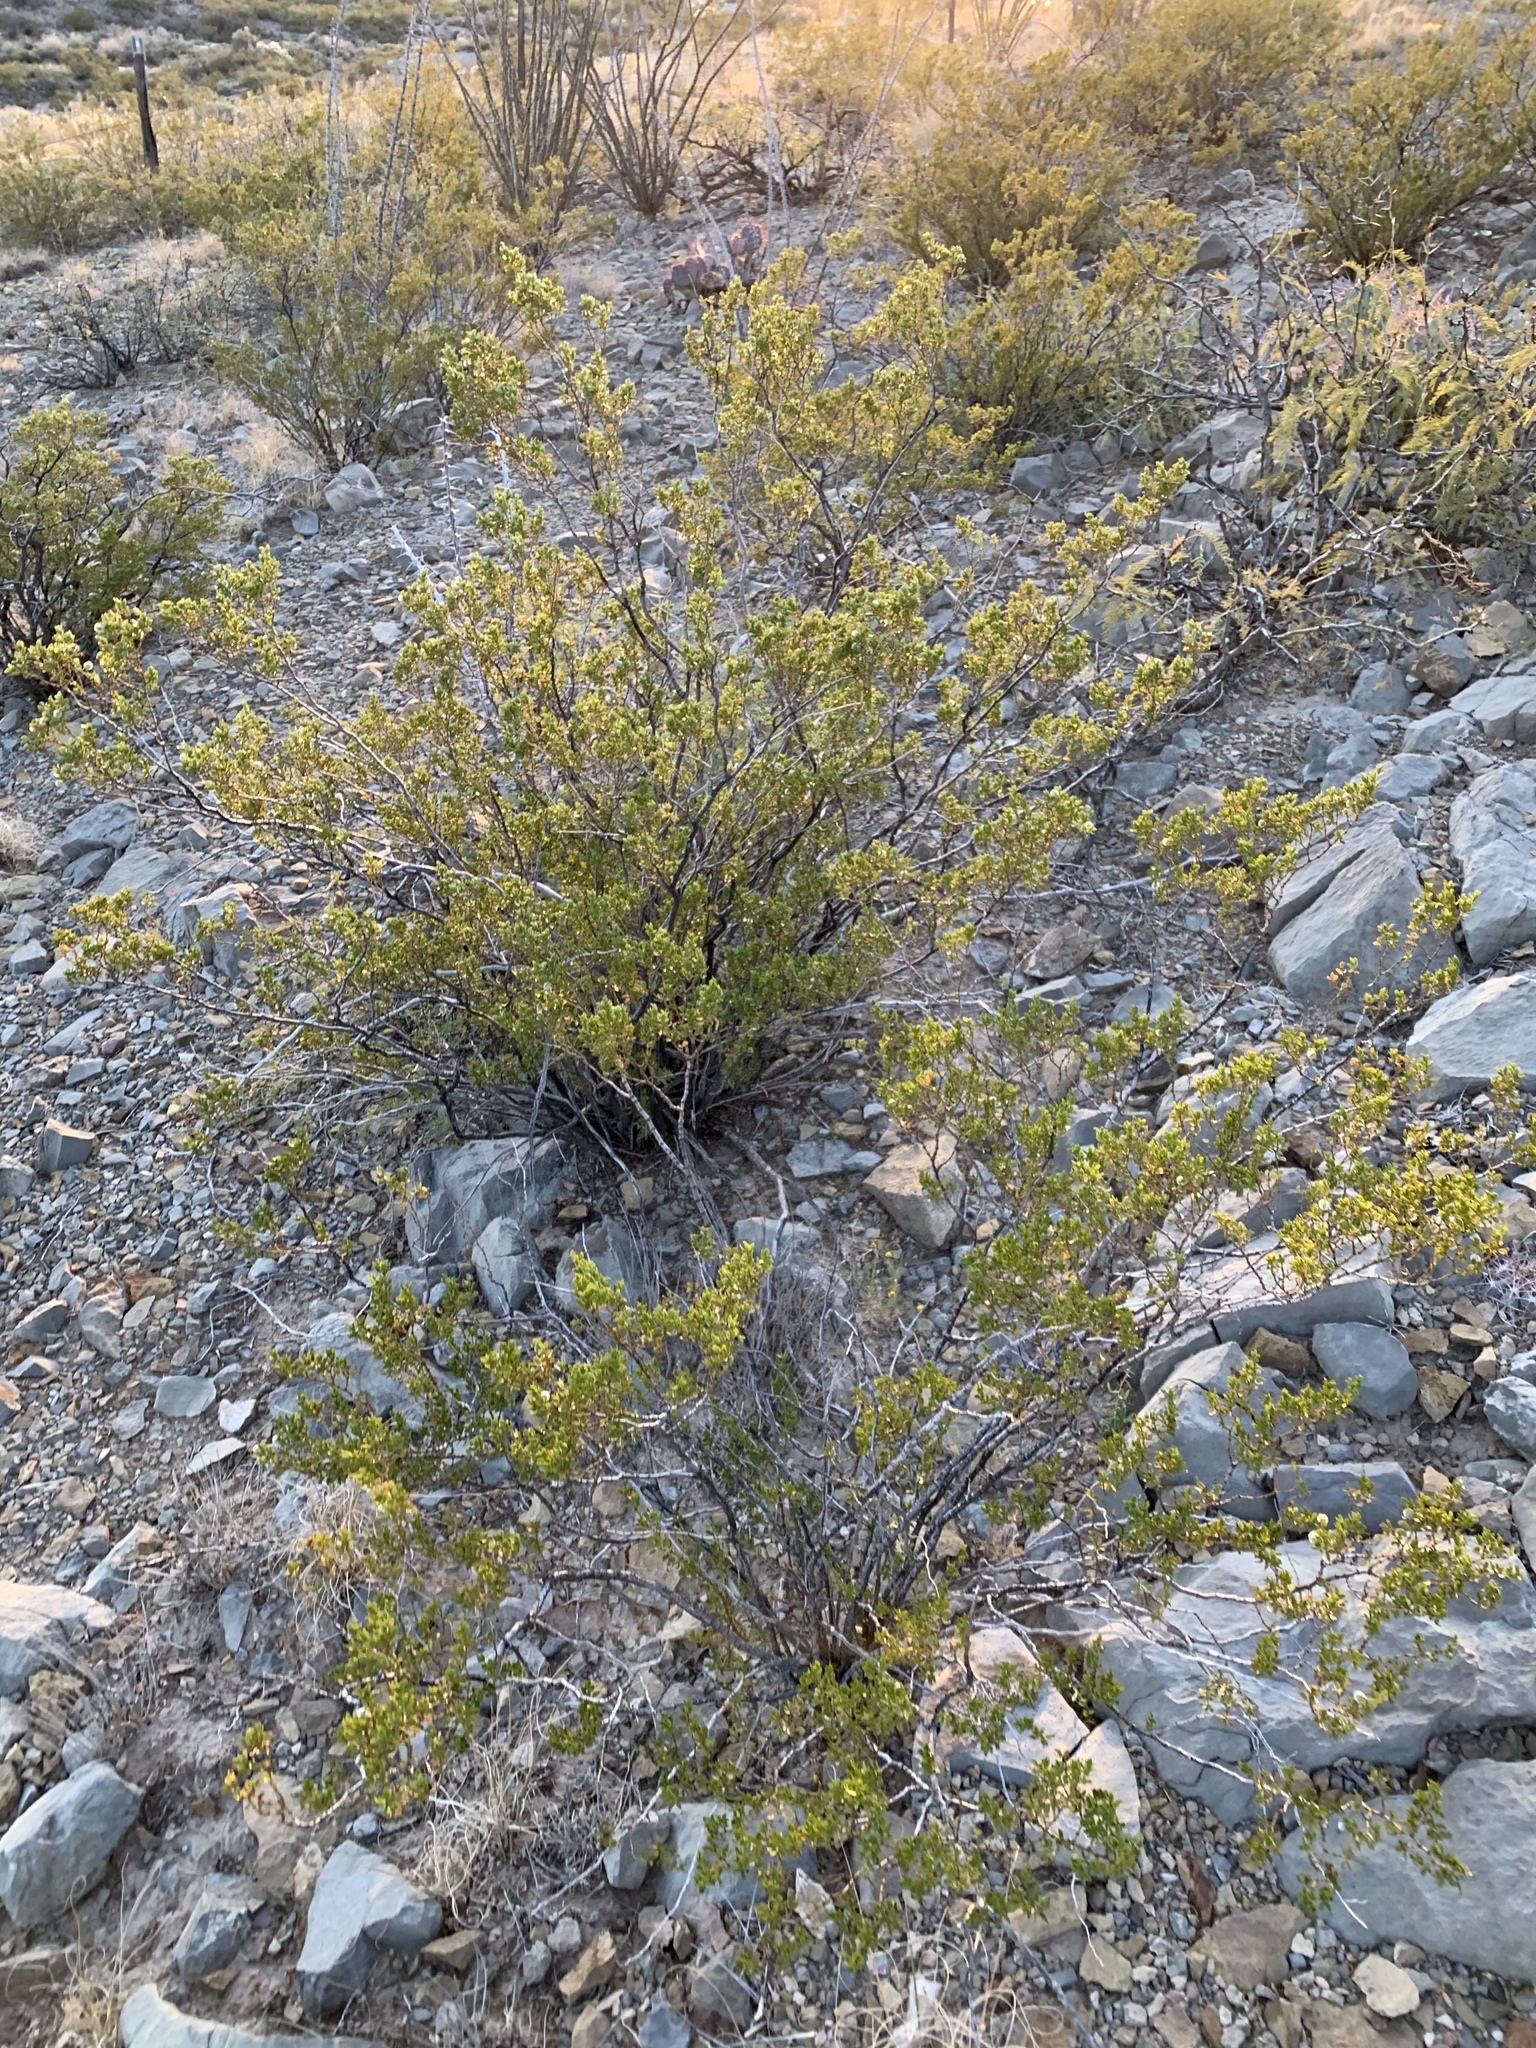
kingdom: Plantae
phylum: Tracheophyta
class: Magnoliopsida
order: Zygophyllales
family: Zygophyllaceae
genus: Larrea
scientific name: Larrea tridentata
